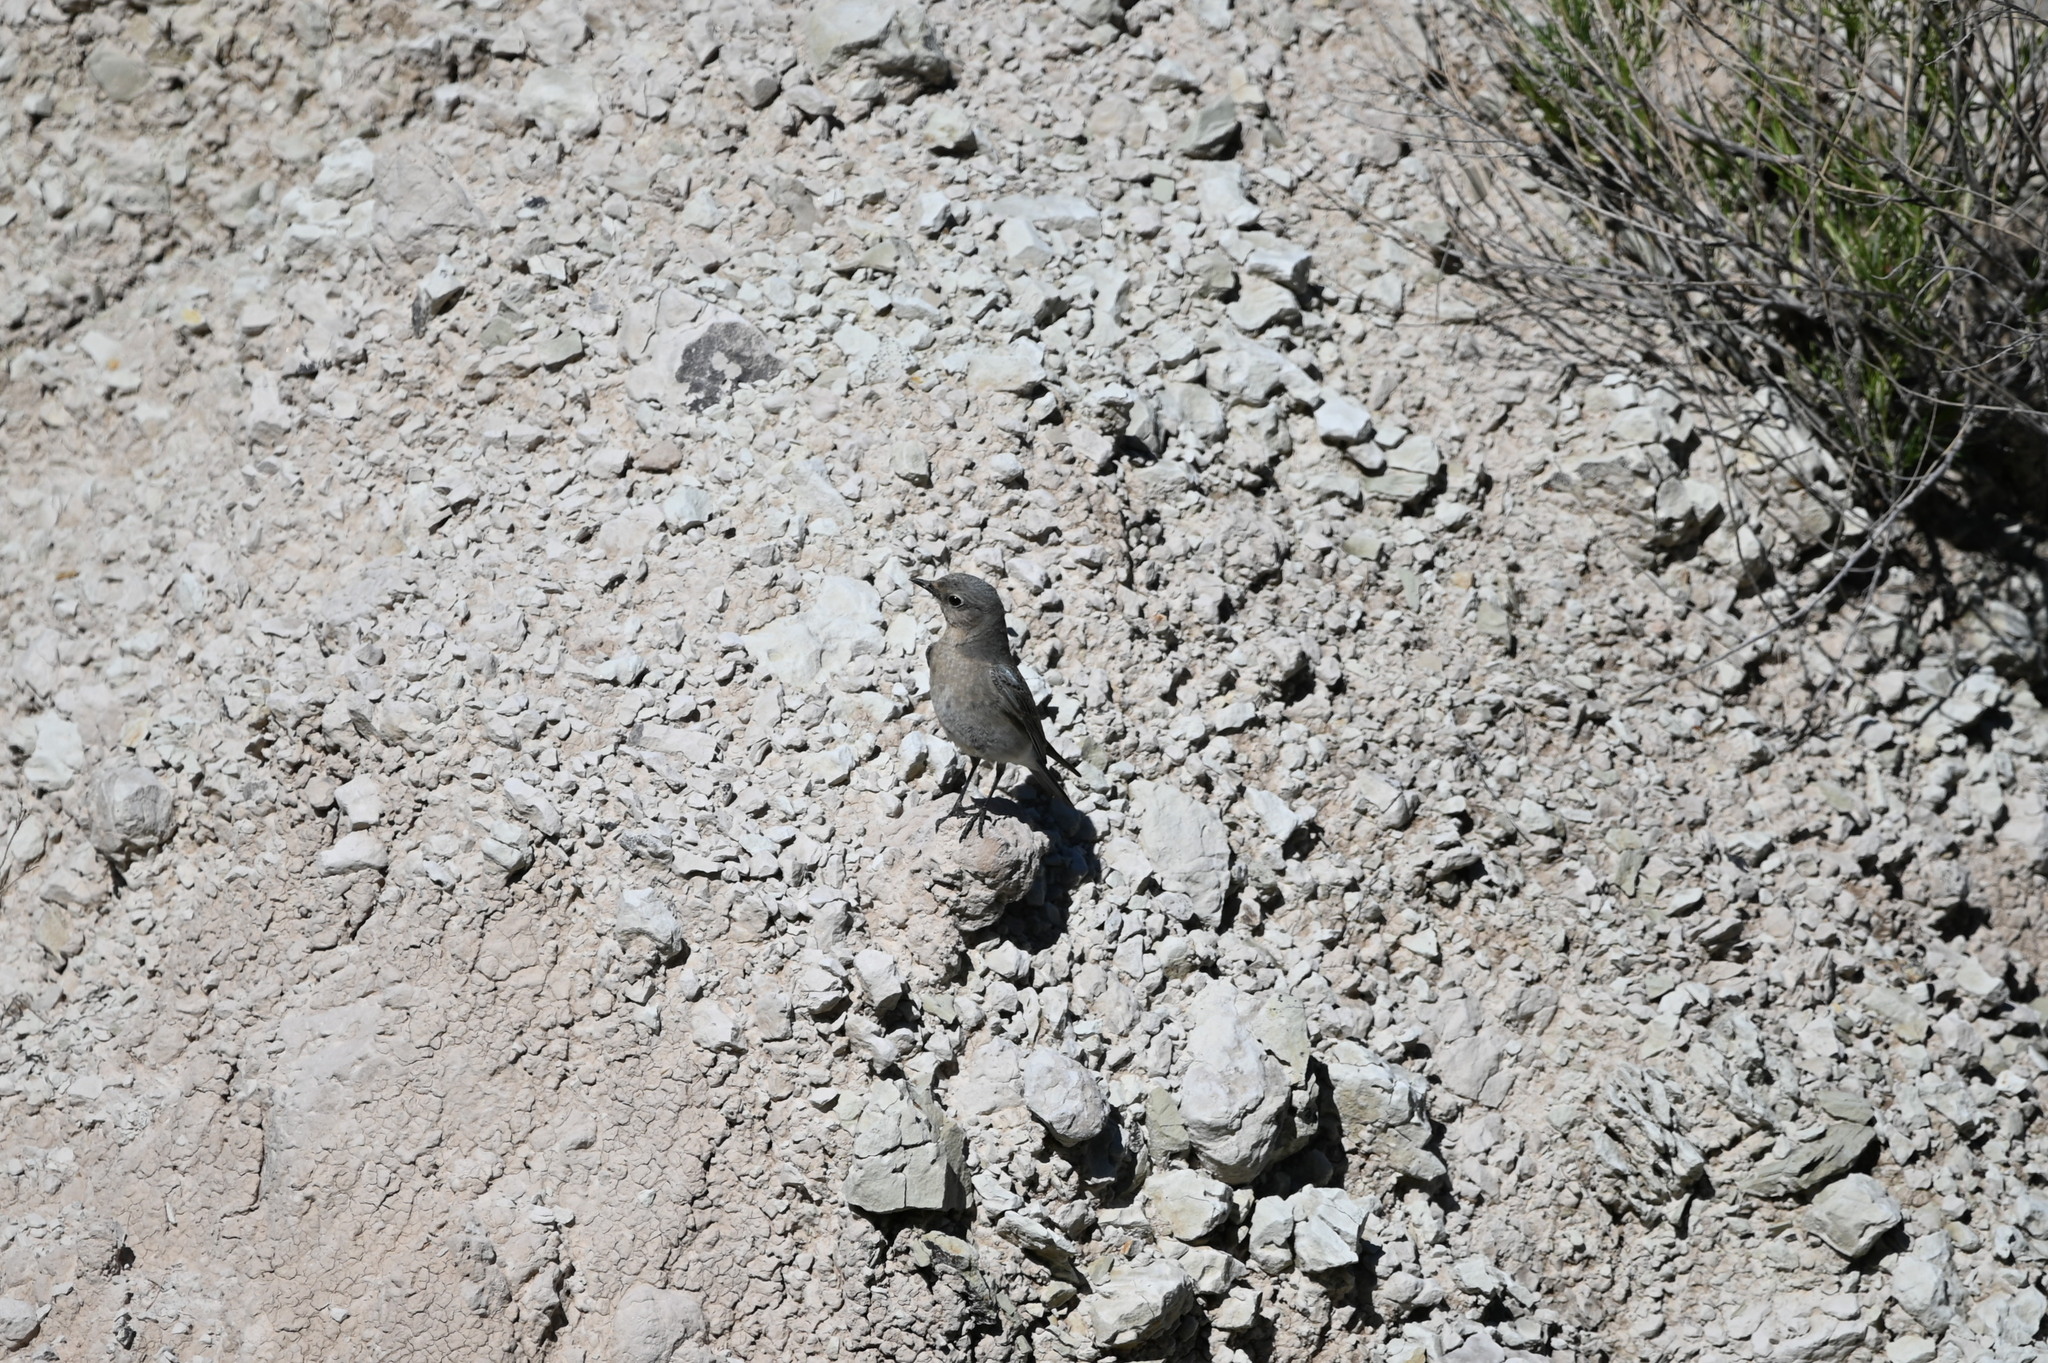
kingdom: Animalia
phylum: Chordata
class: Aves
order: Passeriformes
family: Turdidae
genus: Sialia
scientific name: Sialia currucoides
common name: Mountain bluebird
